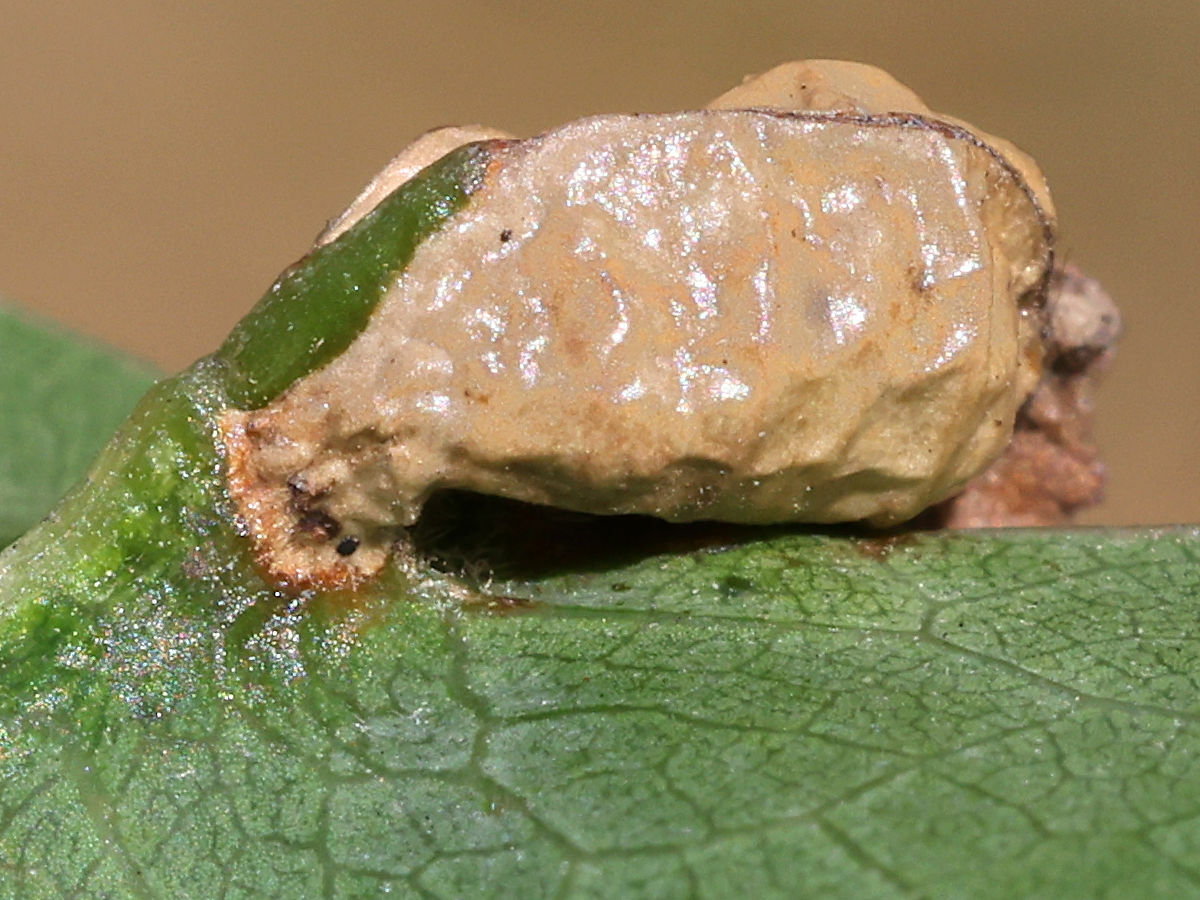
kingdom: Animalia
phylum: Arthropoda
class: Insecta
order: Diptera
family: Cecidomyiidae
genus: Macrodiplosis
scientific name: Macrodiplosis majalis
